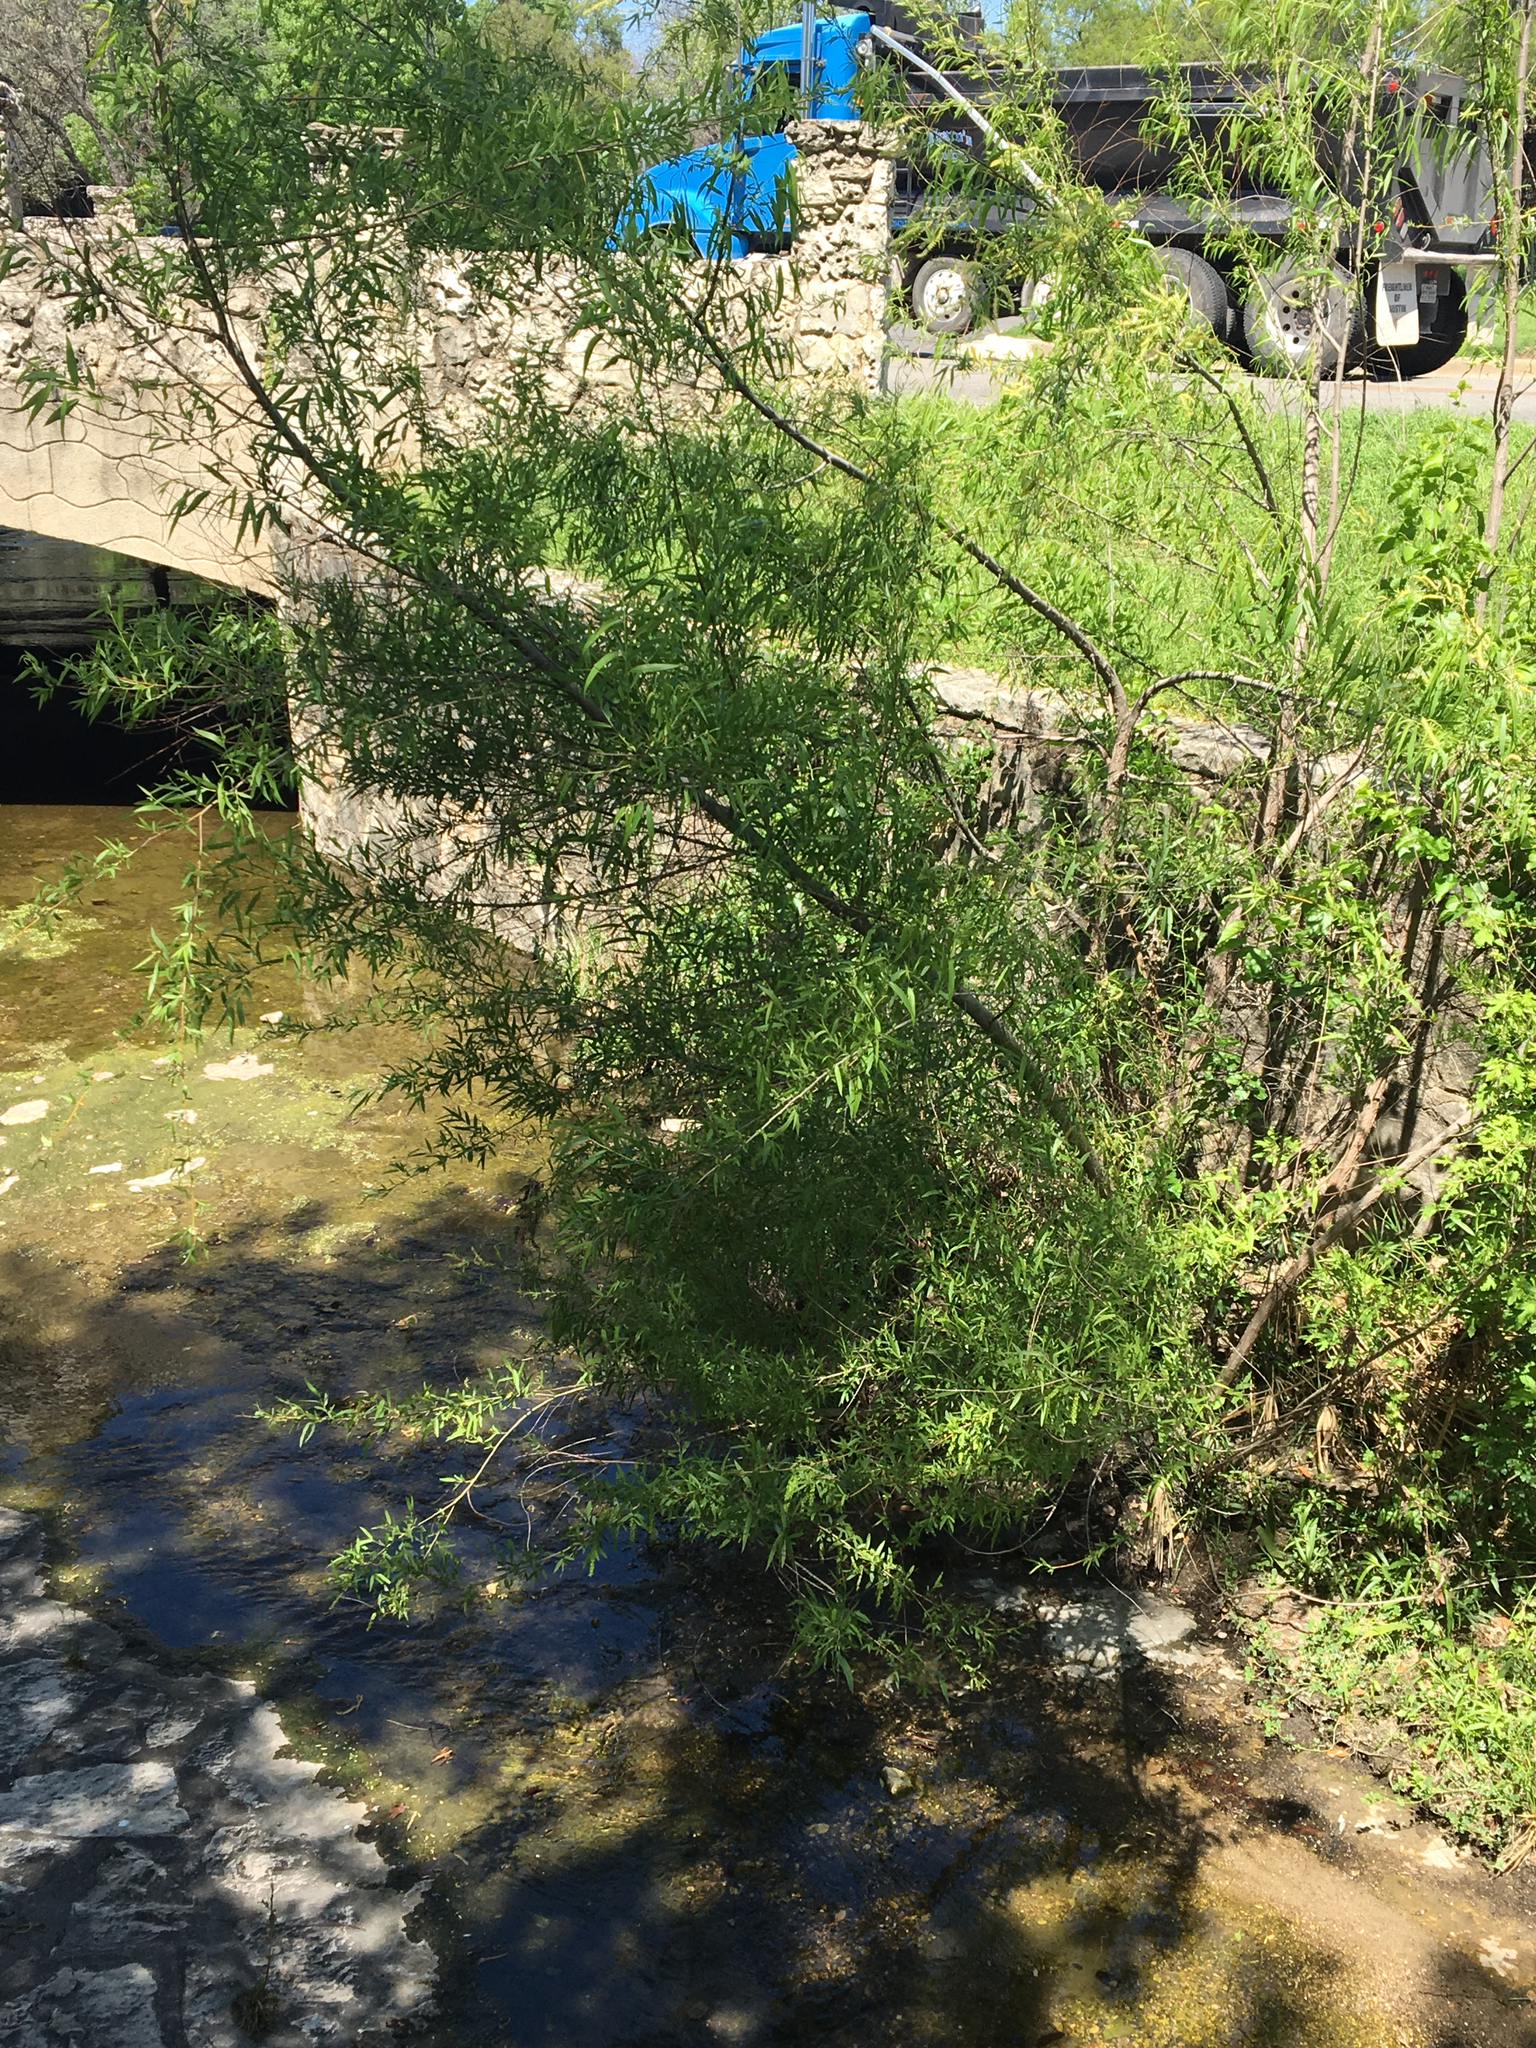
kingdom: Plantae
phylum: Tracheophyta
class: Magnoliopsida
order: Malpighiales
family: Salicaceae
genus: Salix
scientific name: Salix nigra
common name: Black willow
